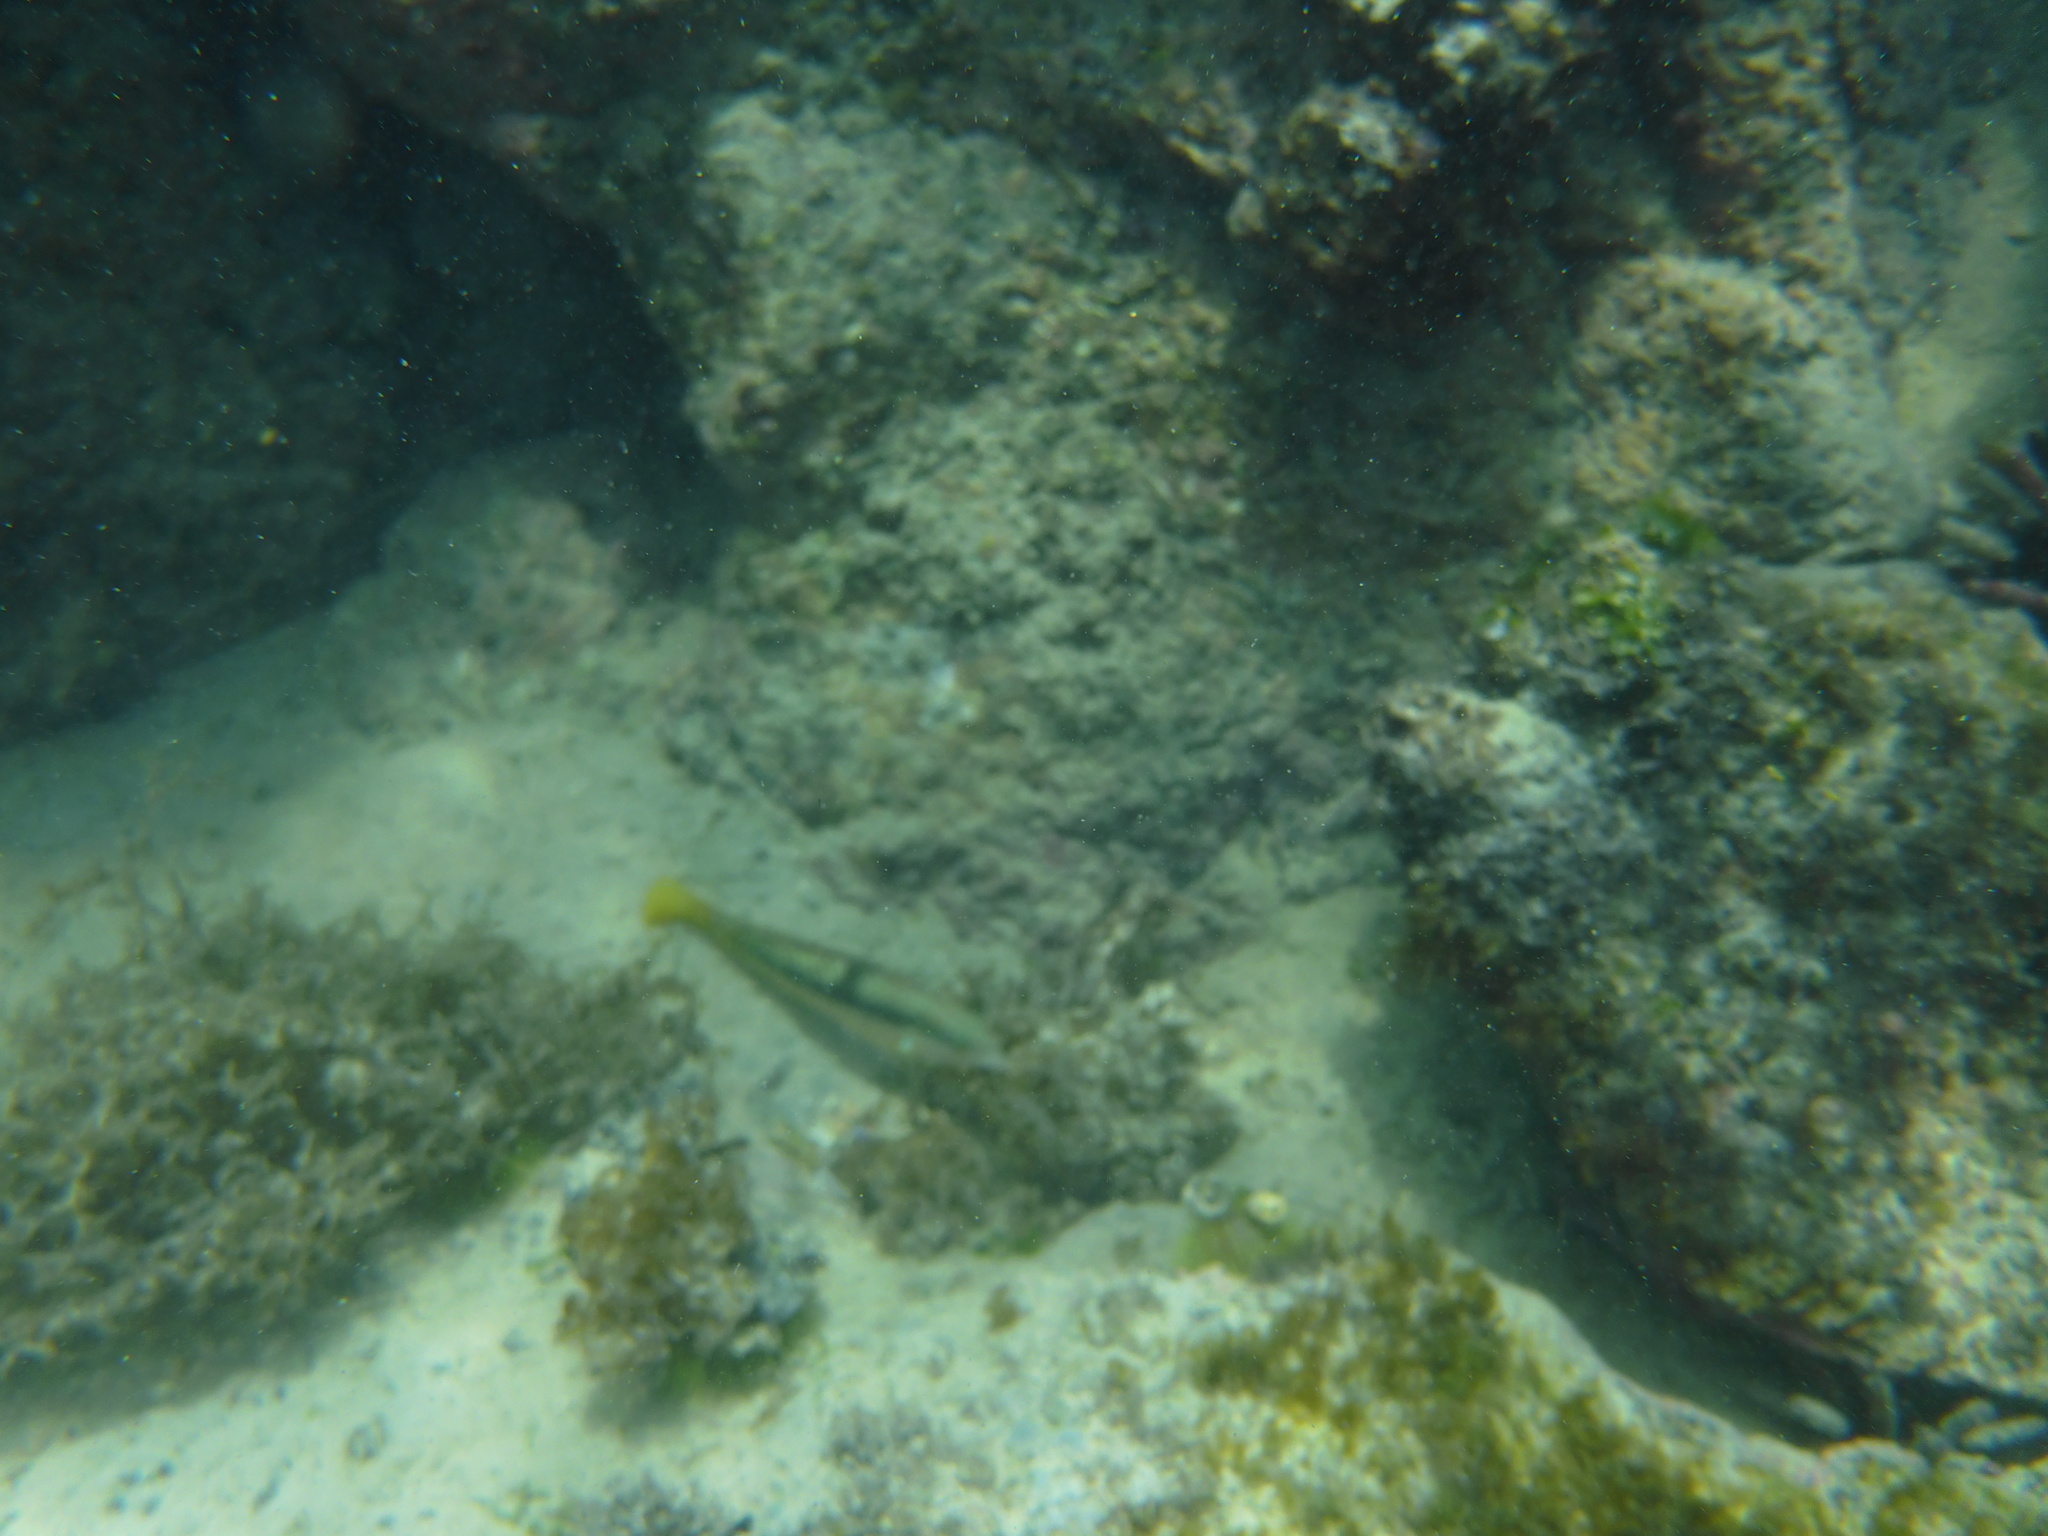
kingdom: Animalia
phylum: Chordata
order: Perciformes
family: Labridae
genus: Halichoeres
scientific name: Halichoeres nicholsi
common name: Spinster wrasse
